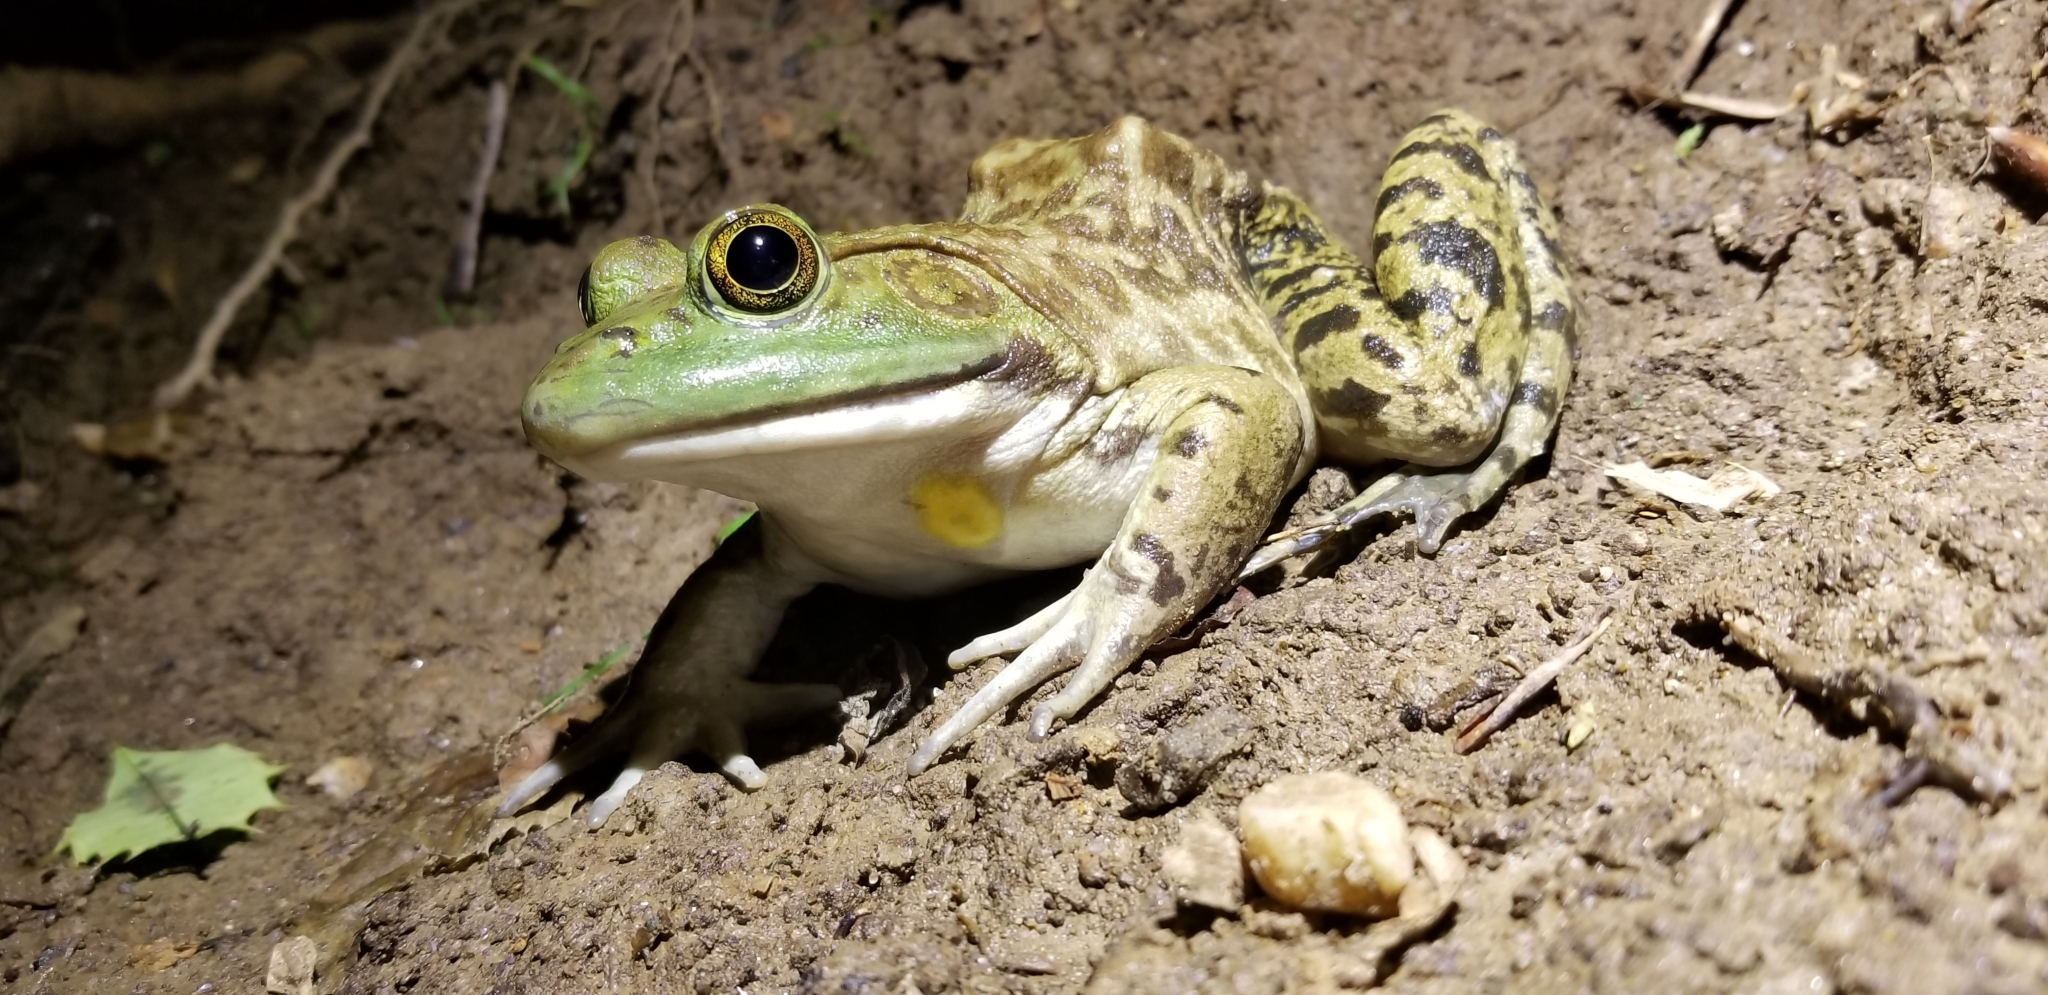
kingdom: Animalia
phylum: Chordata
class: Amphibia
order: Anura
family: Ranidae
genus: Lithobates
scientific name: Lithobates catesbeianus
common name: American bullfrog
